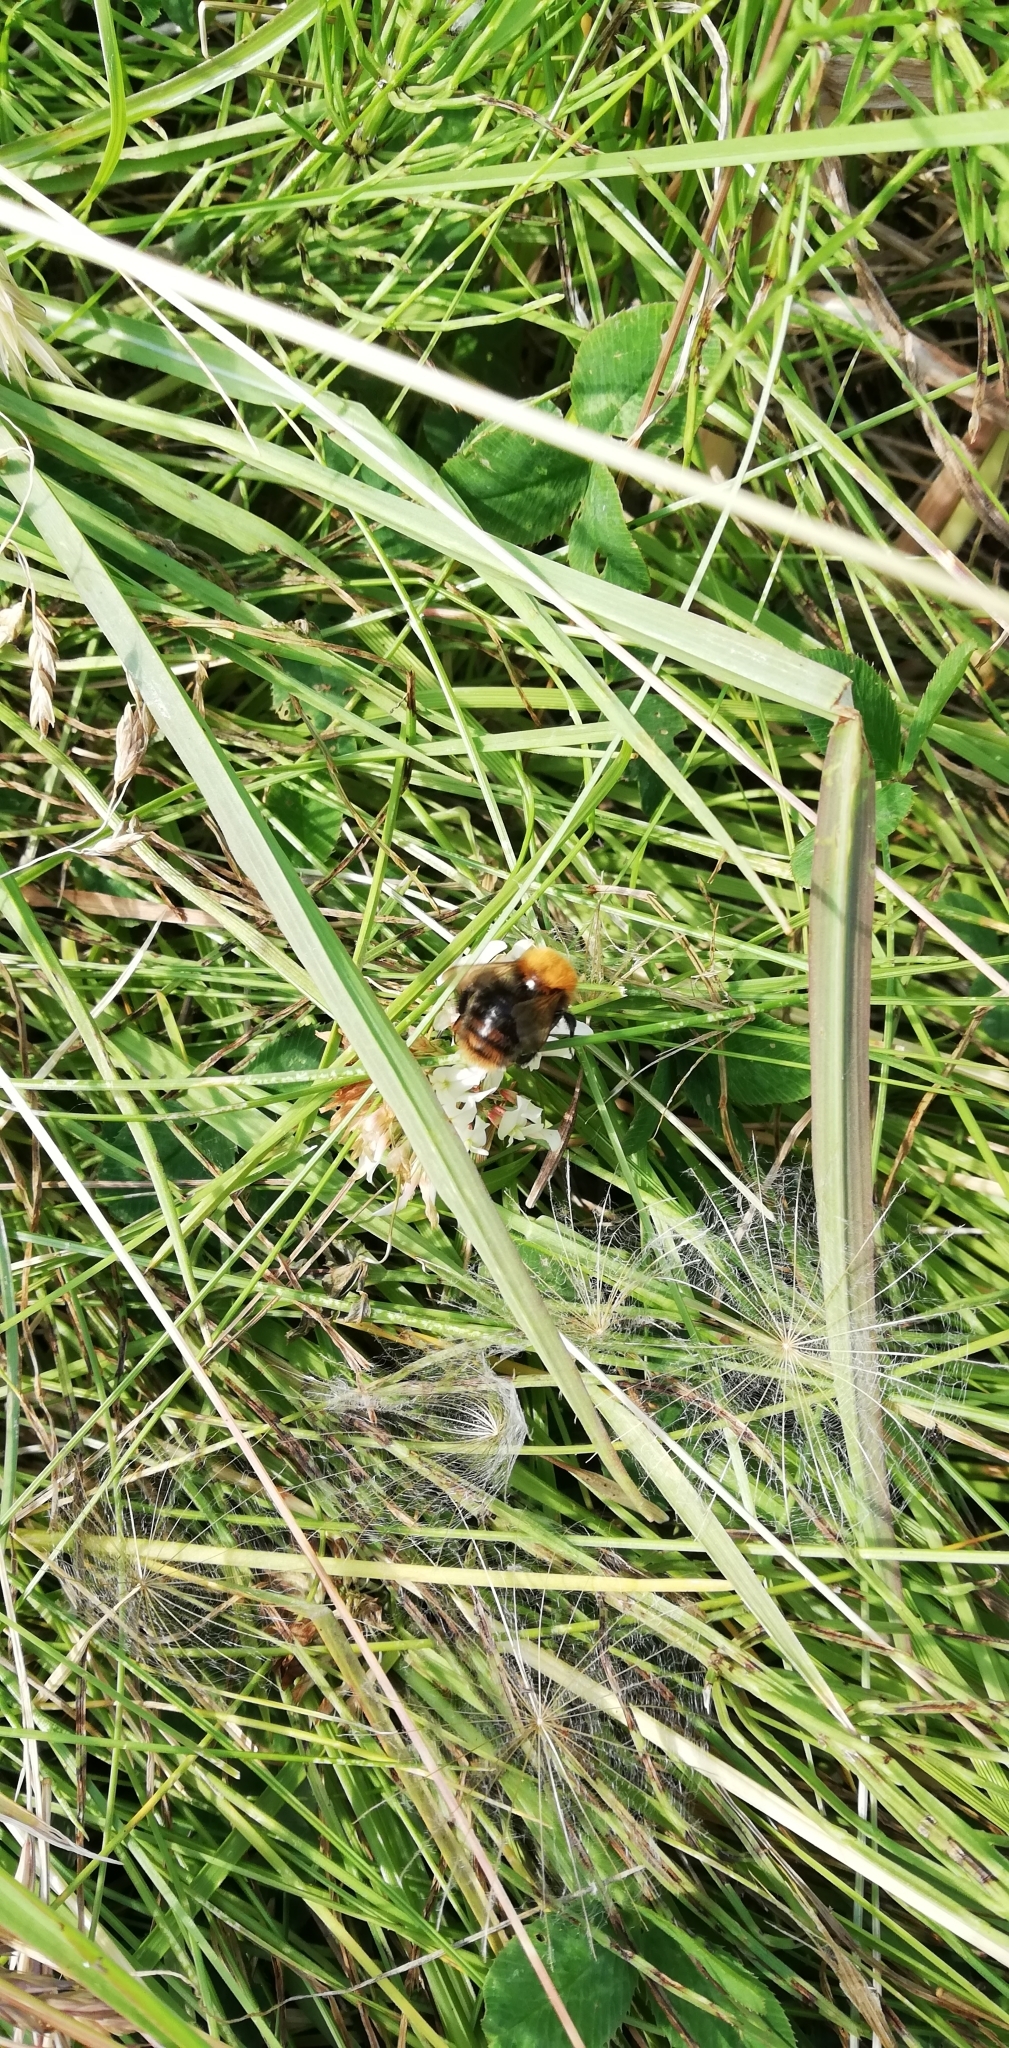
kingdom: Animalia
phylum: Arthropoda
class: Insecta
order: Hymenoptera
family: Apidae
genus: Bombus
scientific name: Bombus pascuorum
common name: Common carder bee
